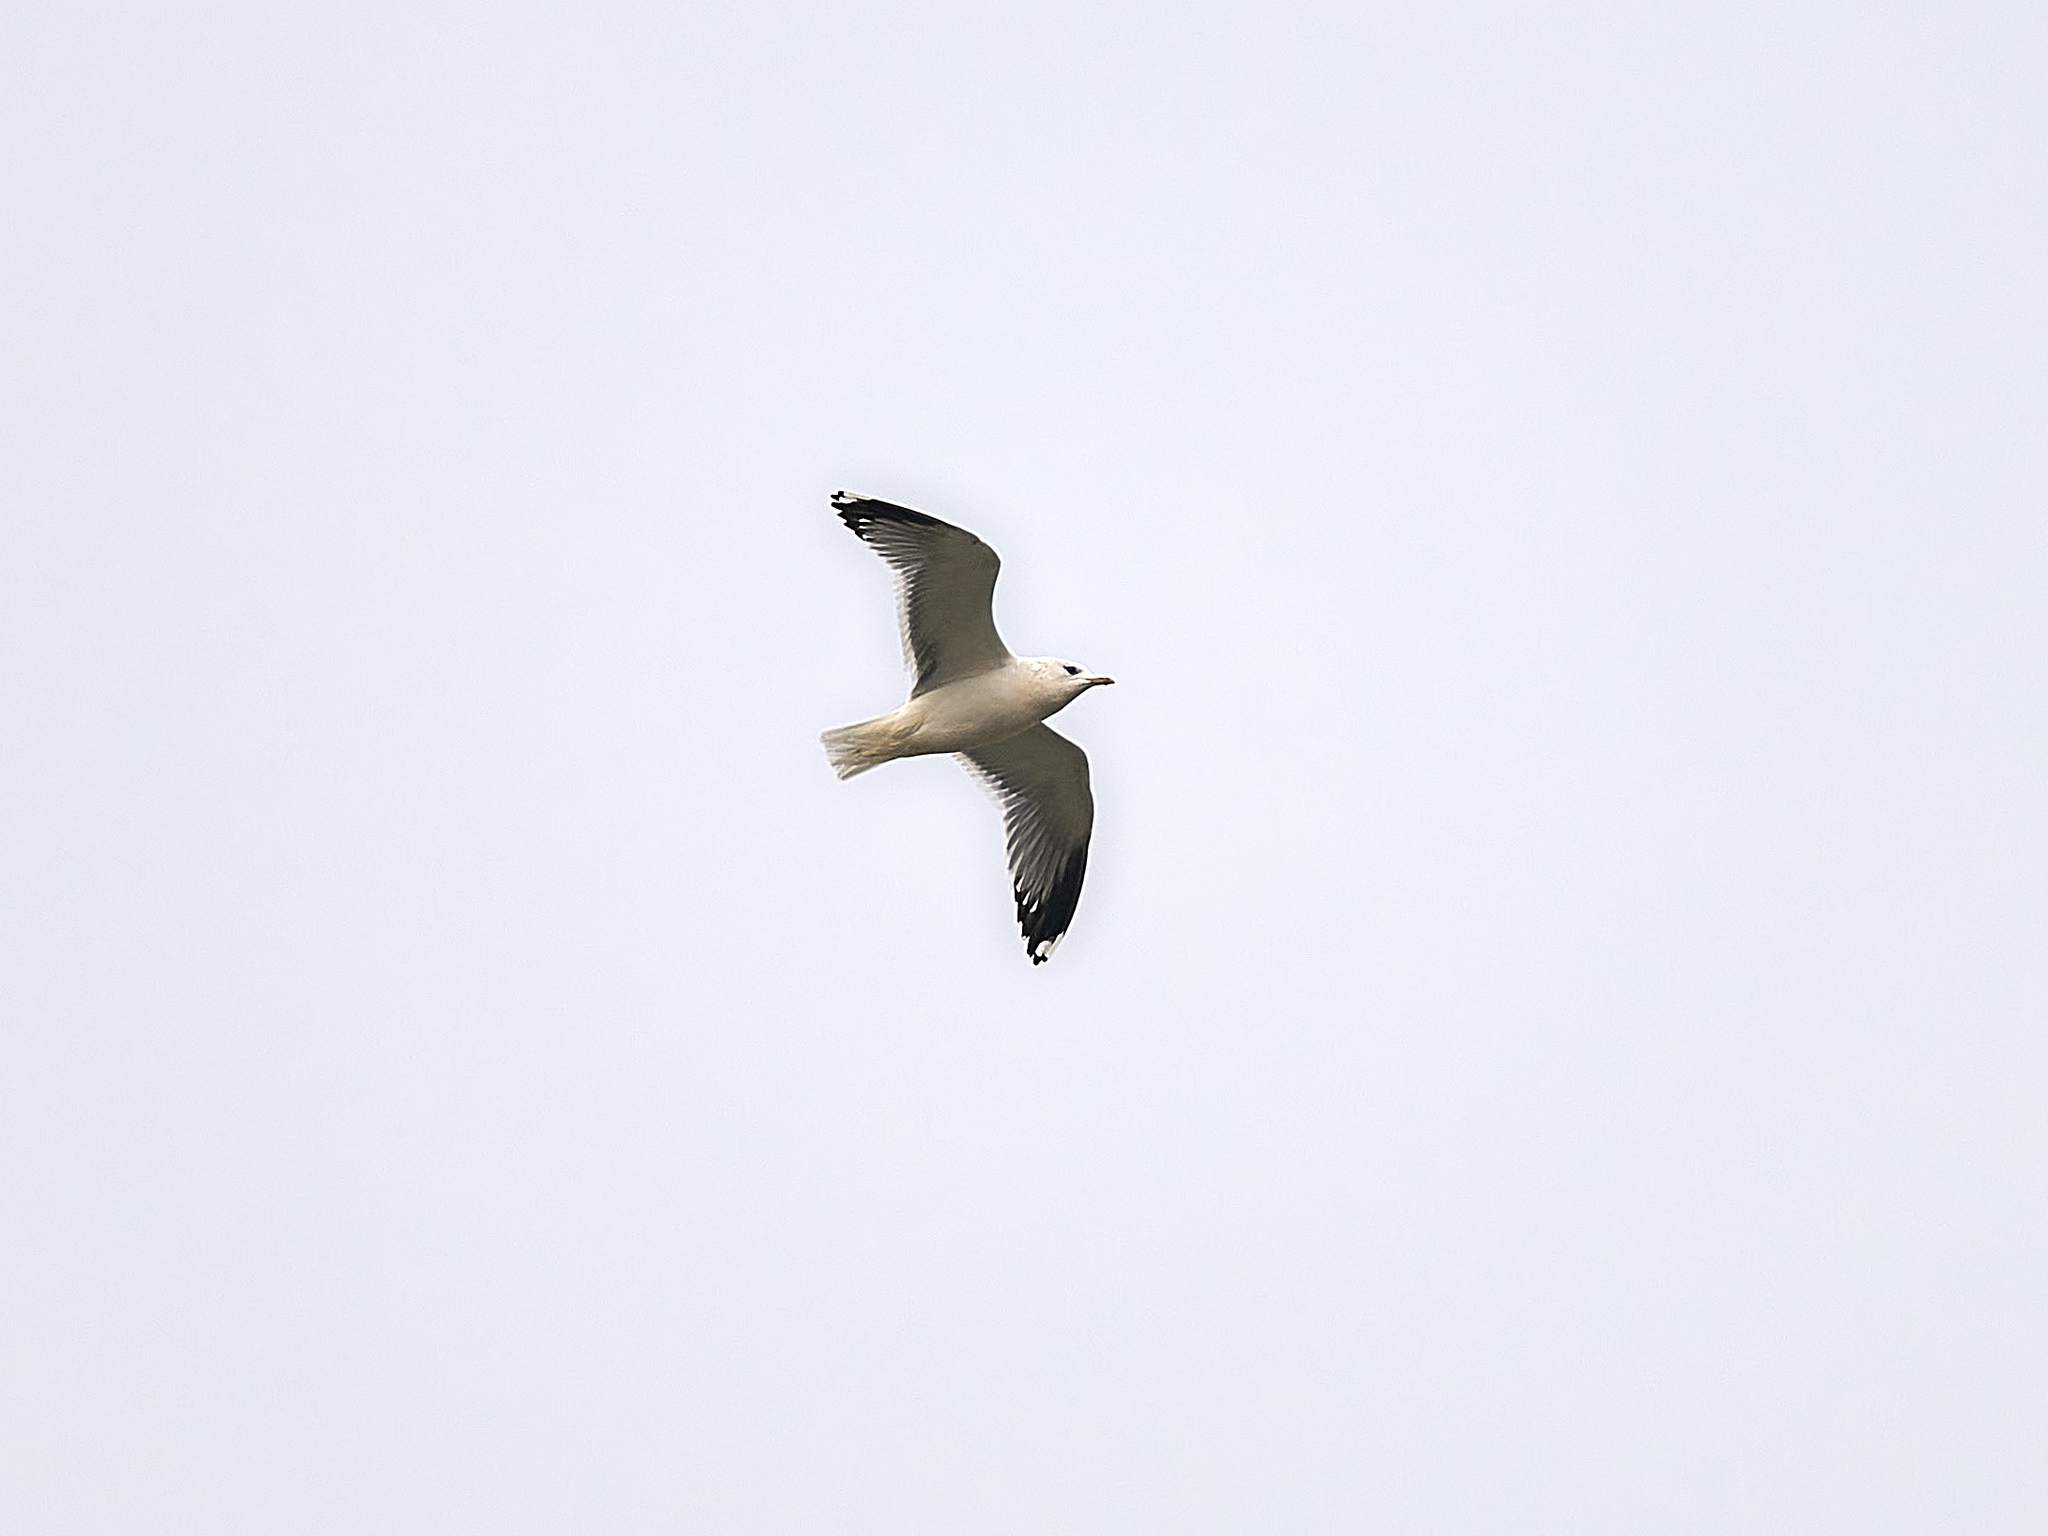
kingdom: Animalia
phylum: Chordata
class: Aves
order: Charadriiformes
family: Laridae
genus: Larus
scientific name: Larus canus
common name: Mew gull
